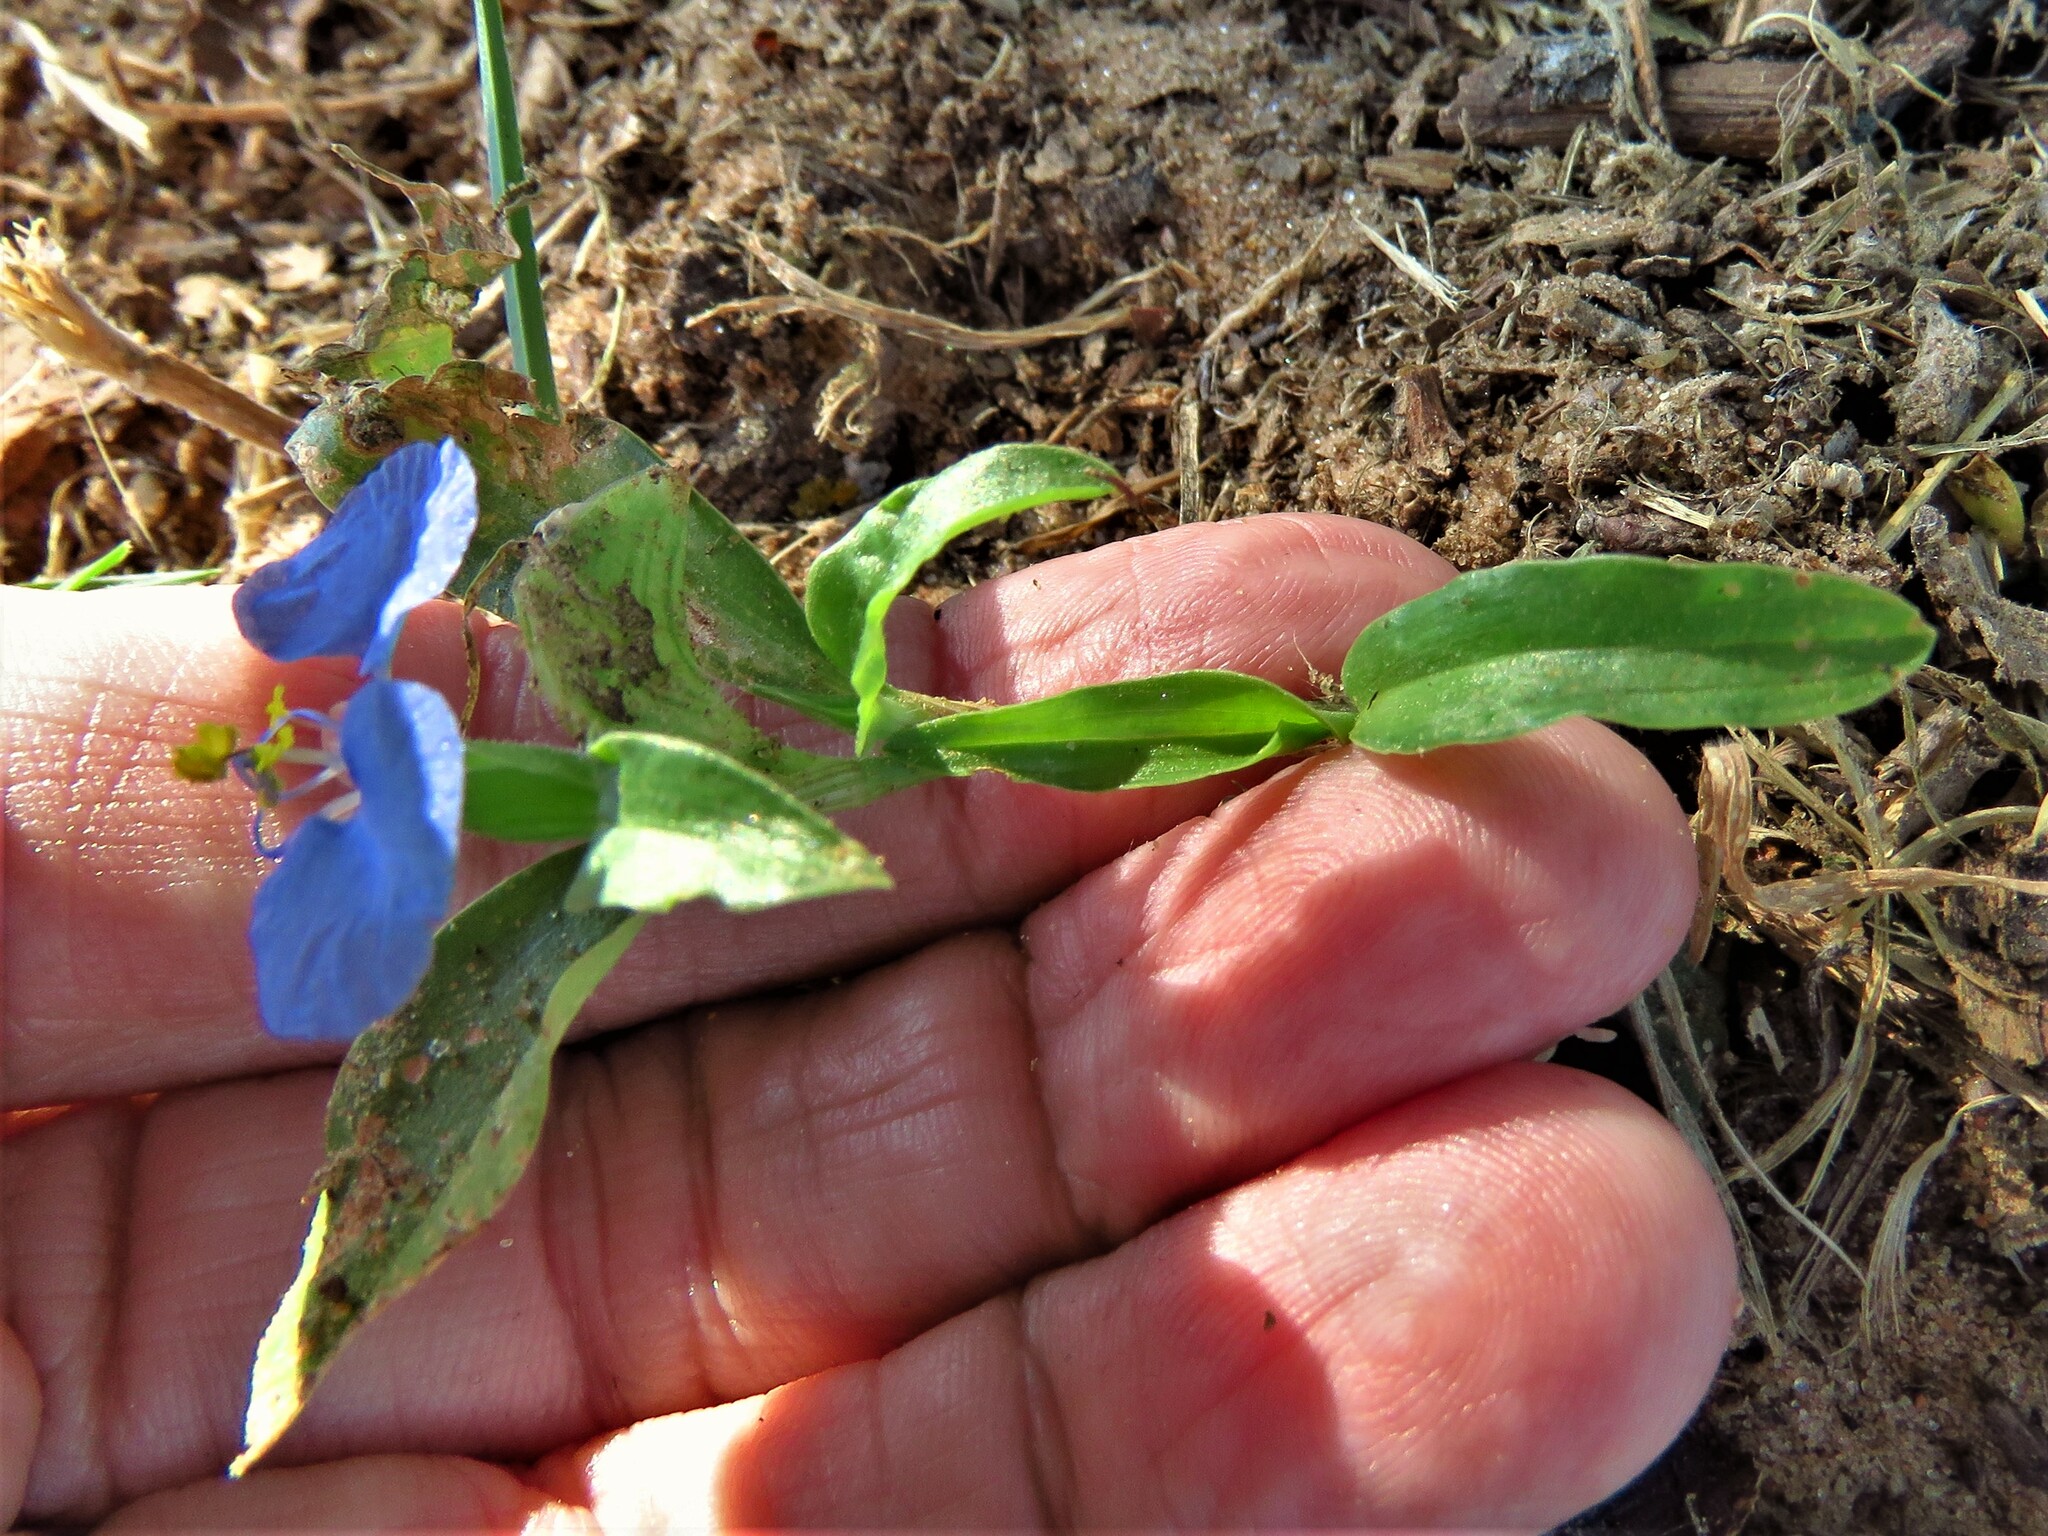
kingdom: Plantae
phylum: Tracheophyta
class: Liliopsida
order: Commelinales
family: Commelinaceae
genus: Commelina
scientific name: Commelina erecta
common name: Blousel blommetjie
